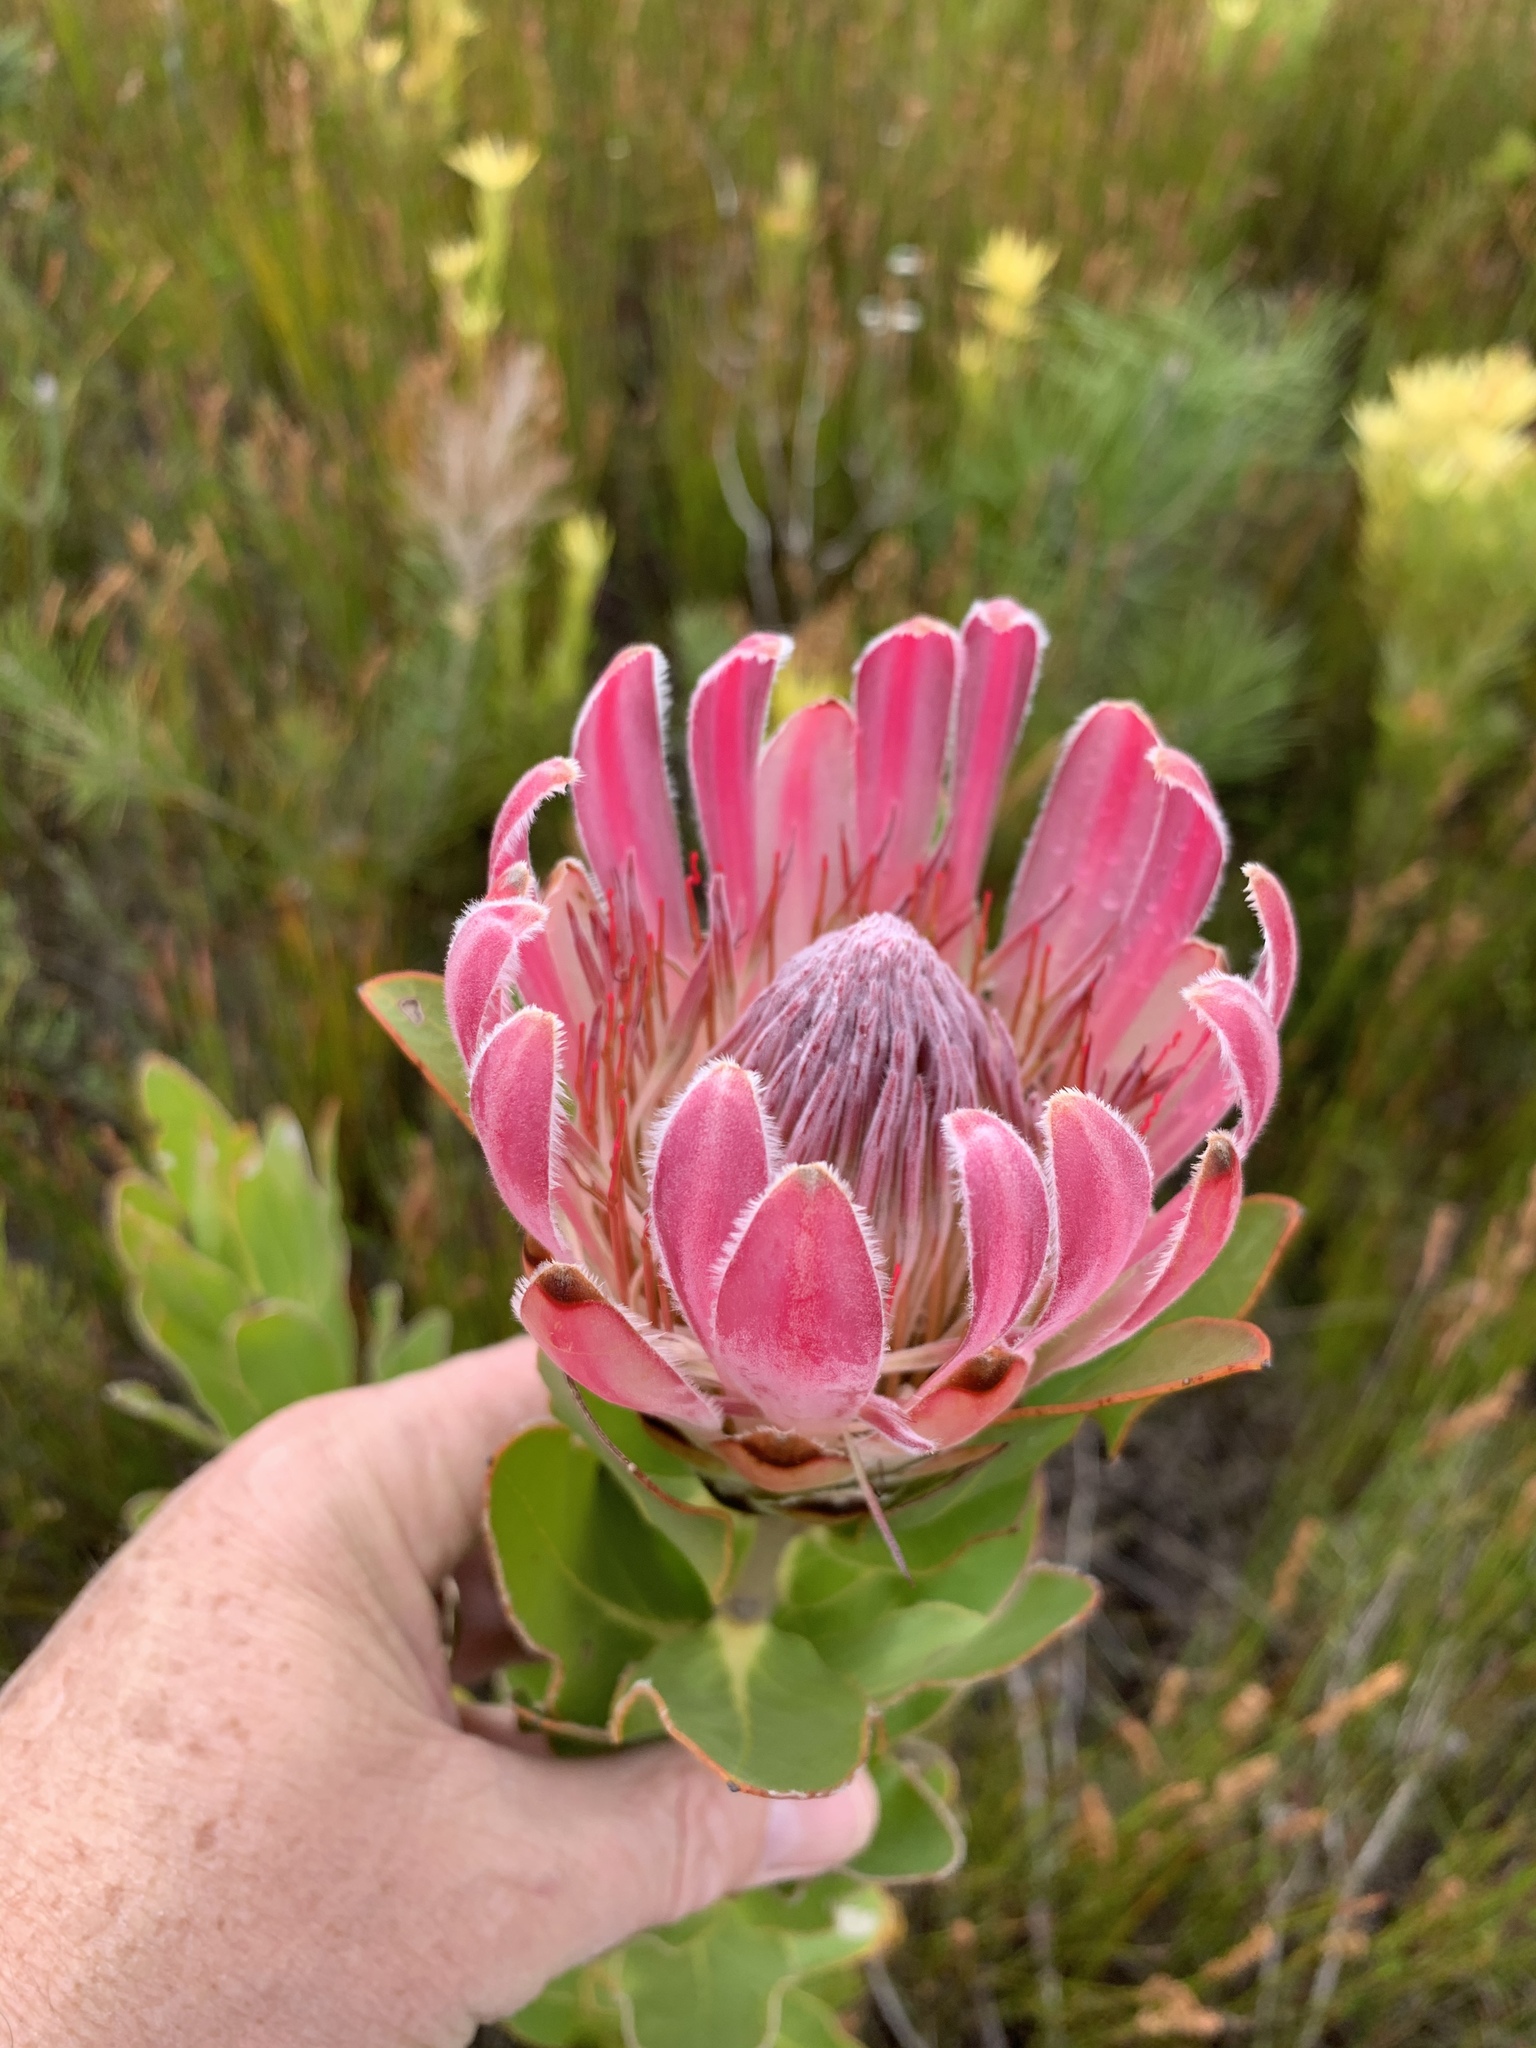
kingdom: Plantae
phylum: Tracheophyta
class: Magnoliopsida
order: Proteales
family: Proteaceae
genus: Protea
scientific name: Protea compacta
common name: Bot river protea
